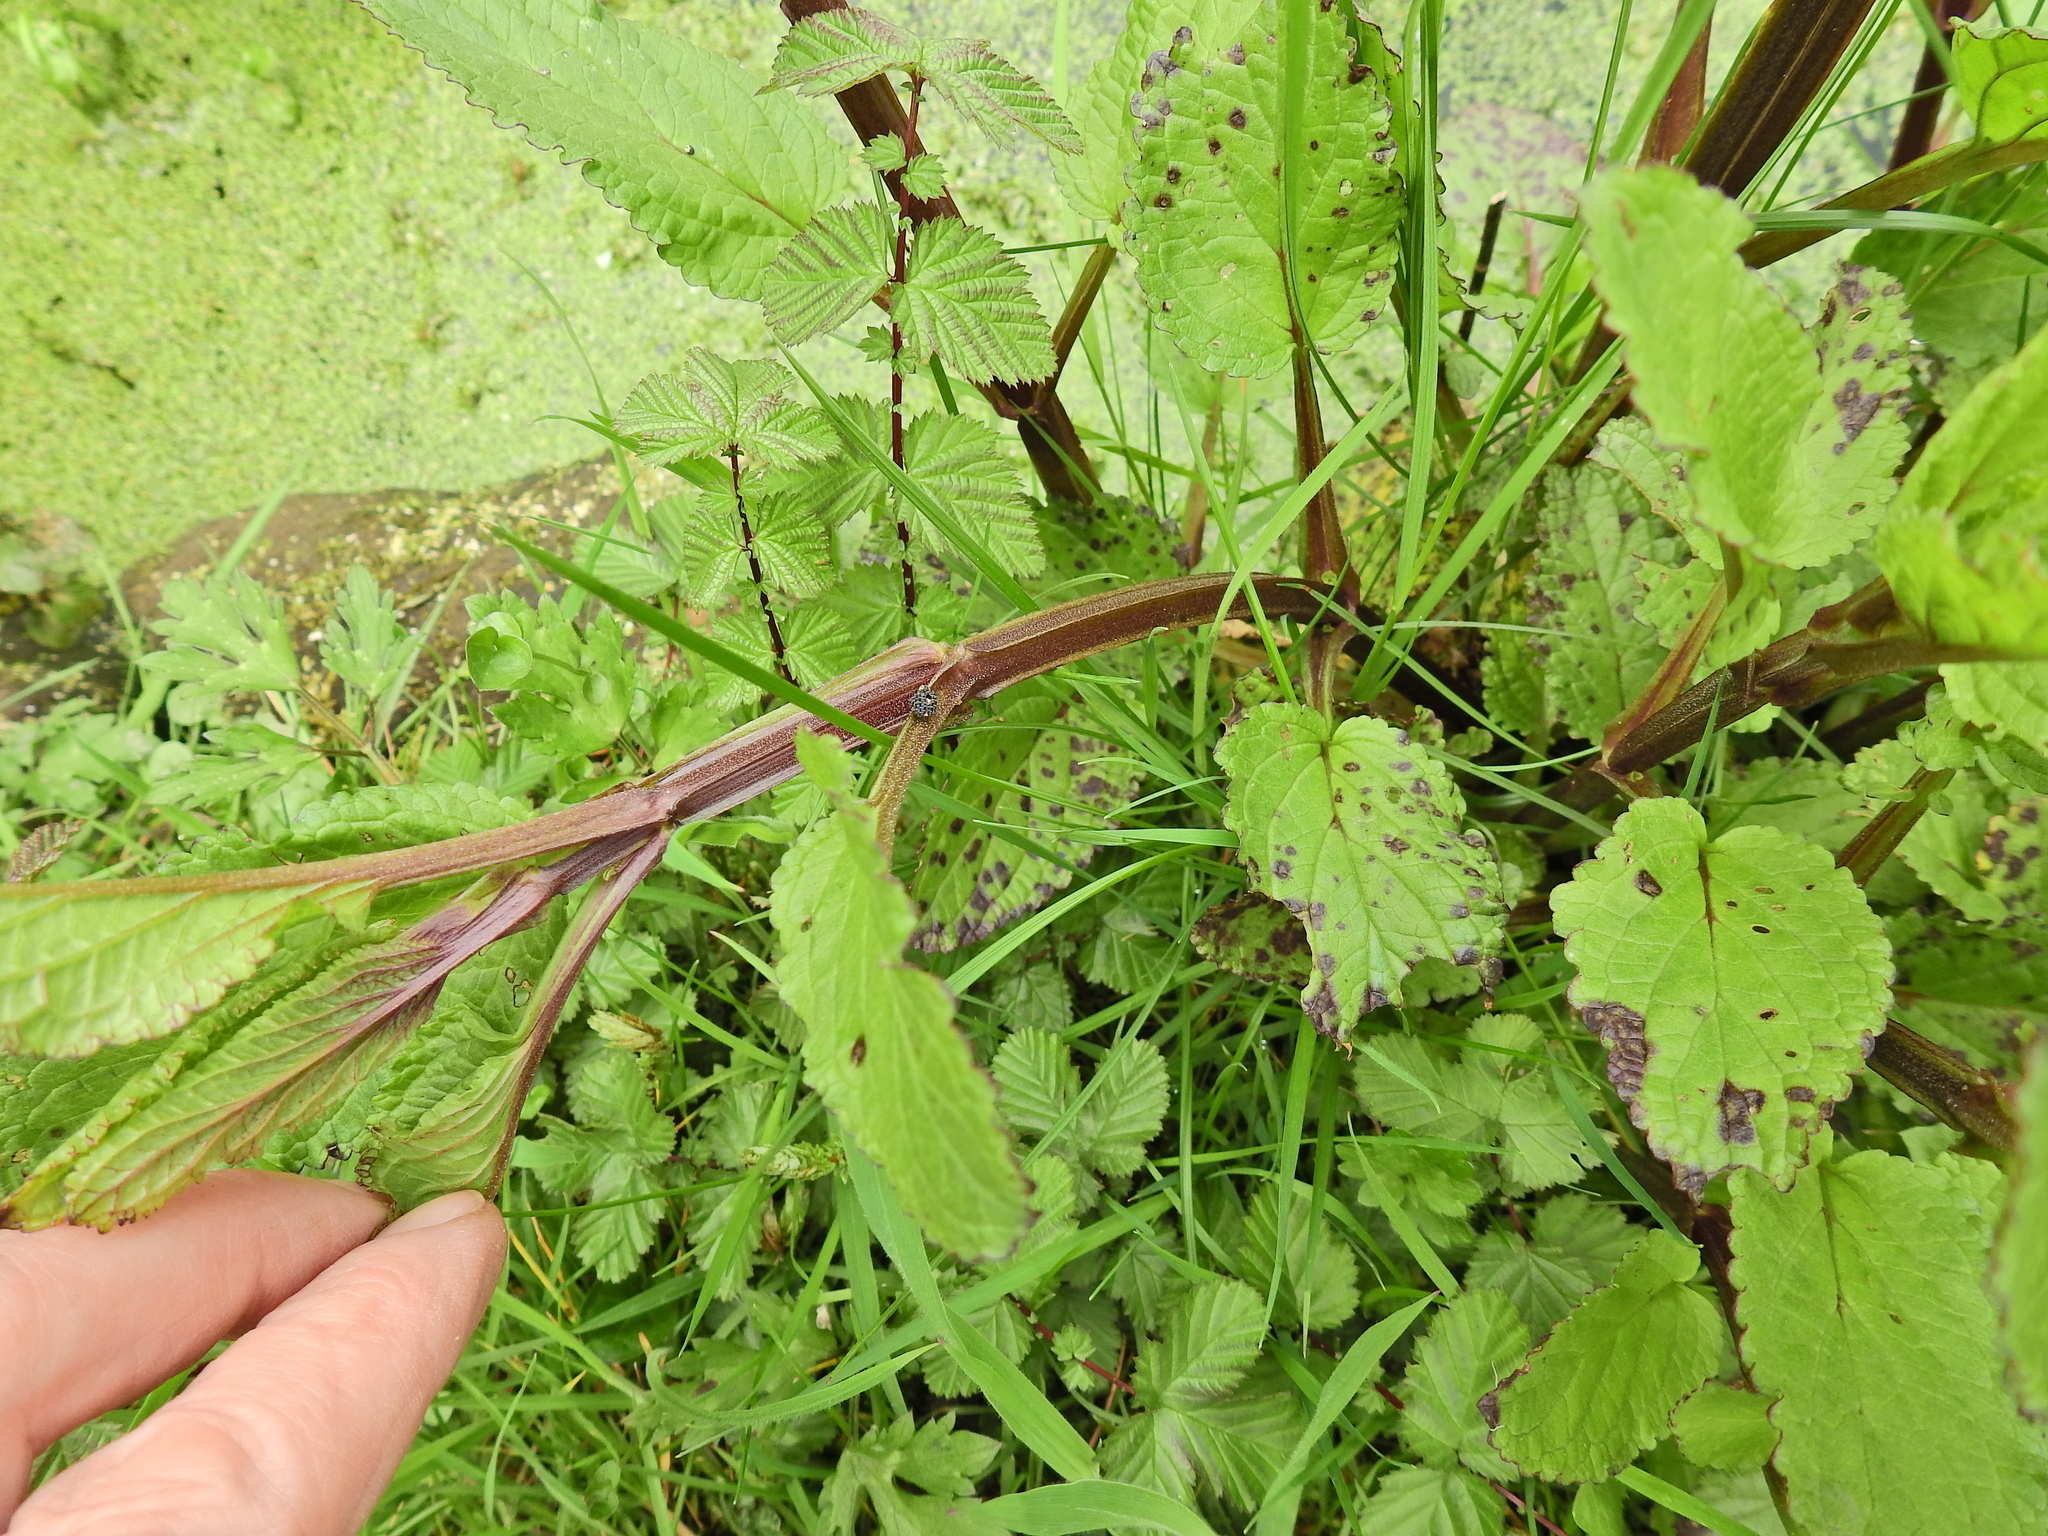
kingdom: Plantae
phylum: Tracheophyta
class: Magnoliopsida
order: Lamiales
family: Scrophulariaceae
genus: Scrophularia
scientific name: Scrophularia auriculata
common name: Water betony
